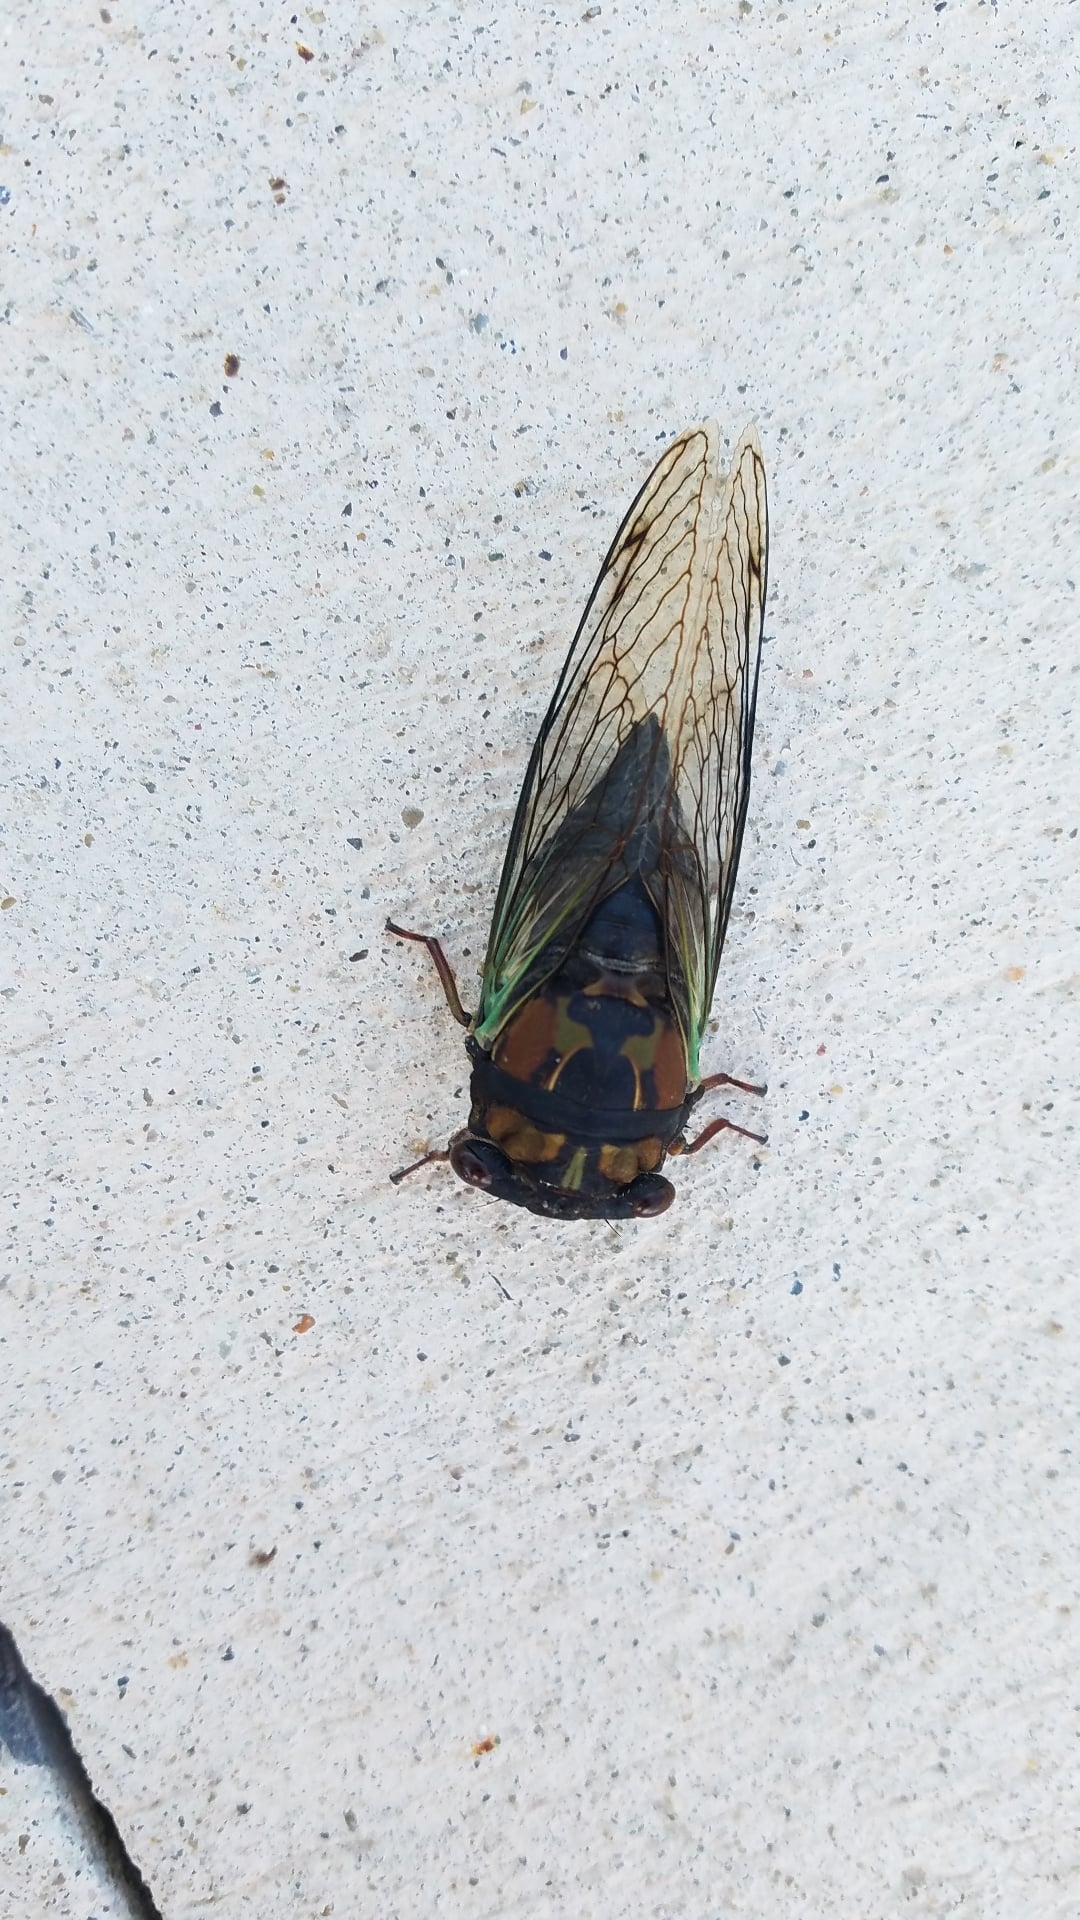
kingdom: Animalia
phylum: Arthropoda
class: Insecta
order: Hemiptera
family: Cicadidae
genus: Neotibicen
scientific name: Neotibicen lyricen
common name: Lyric cicada
